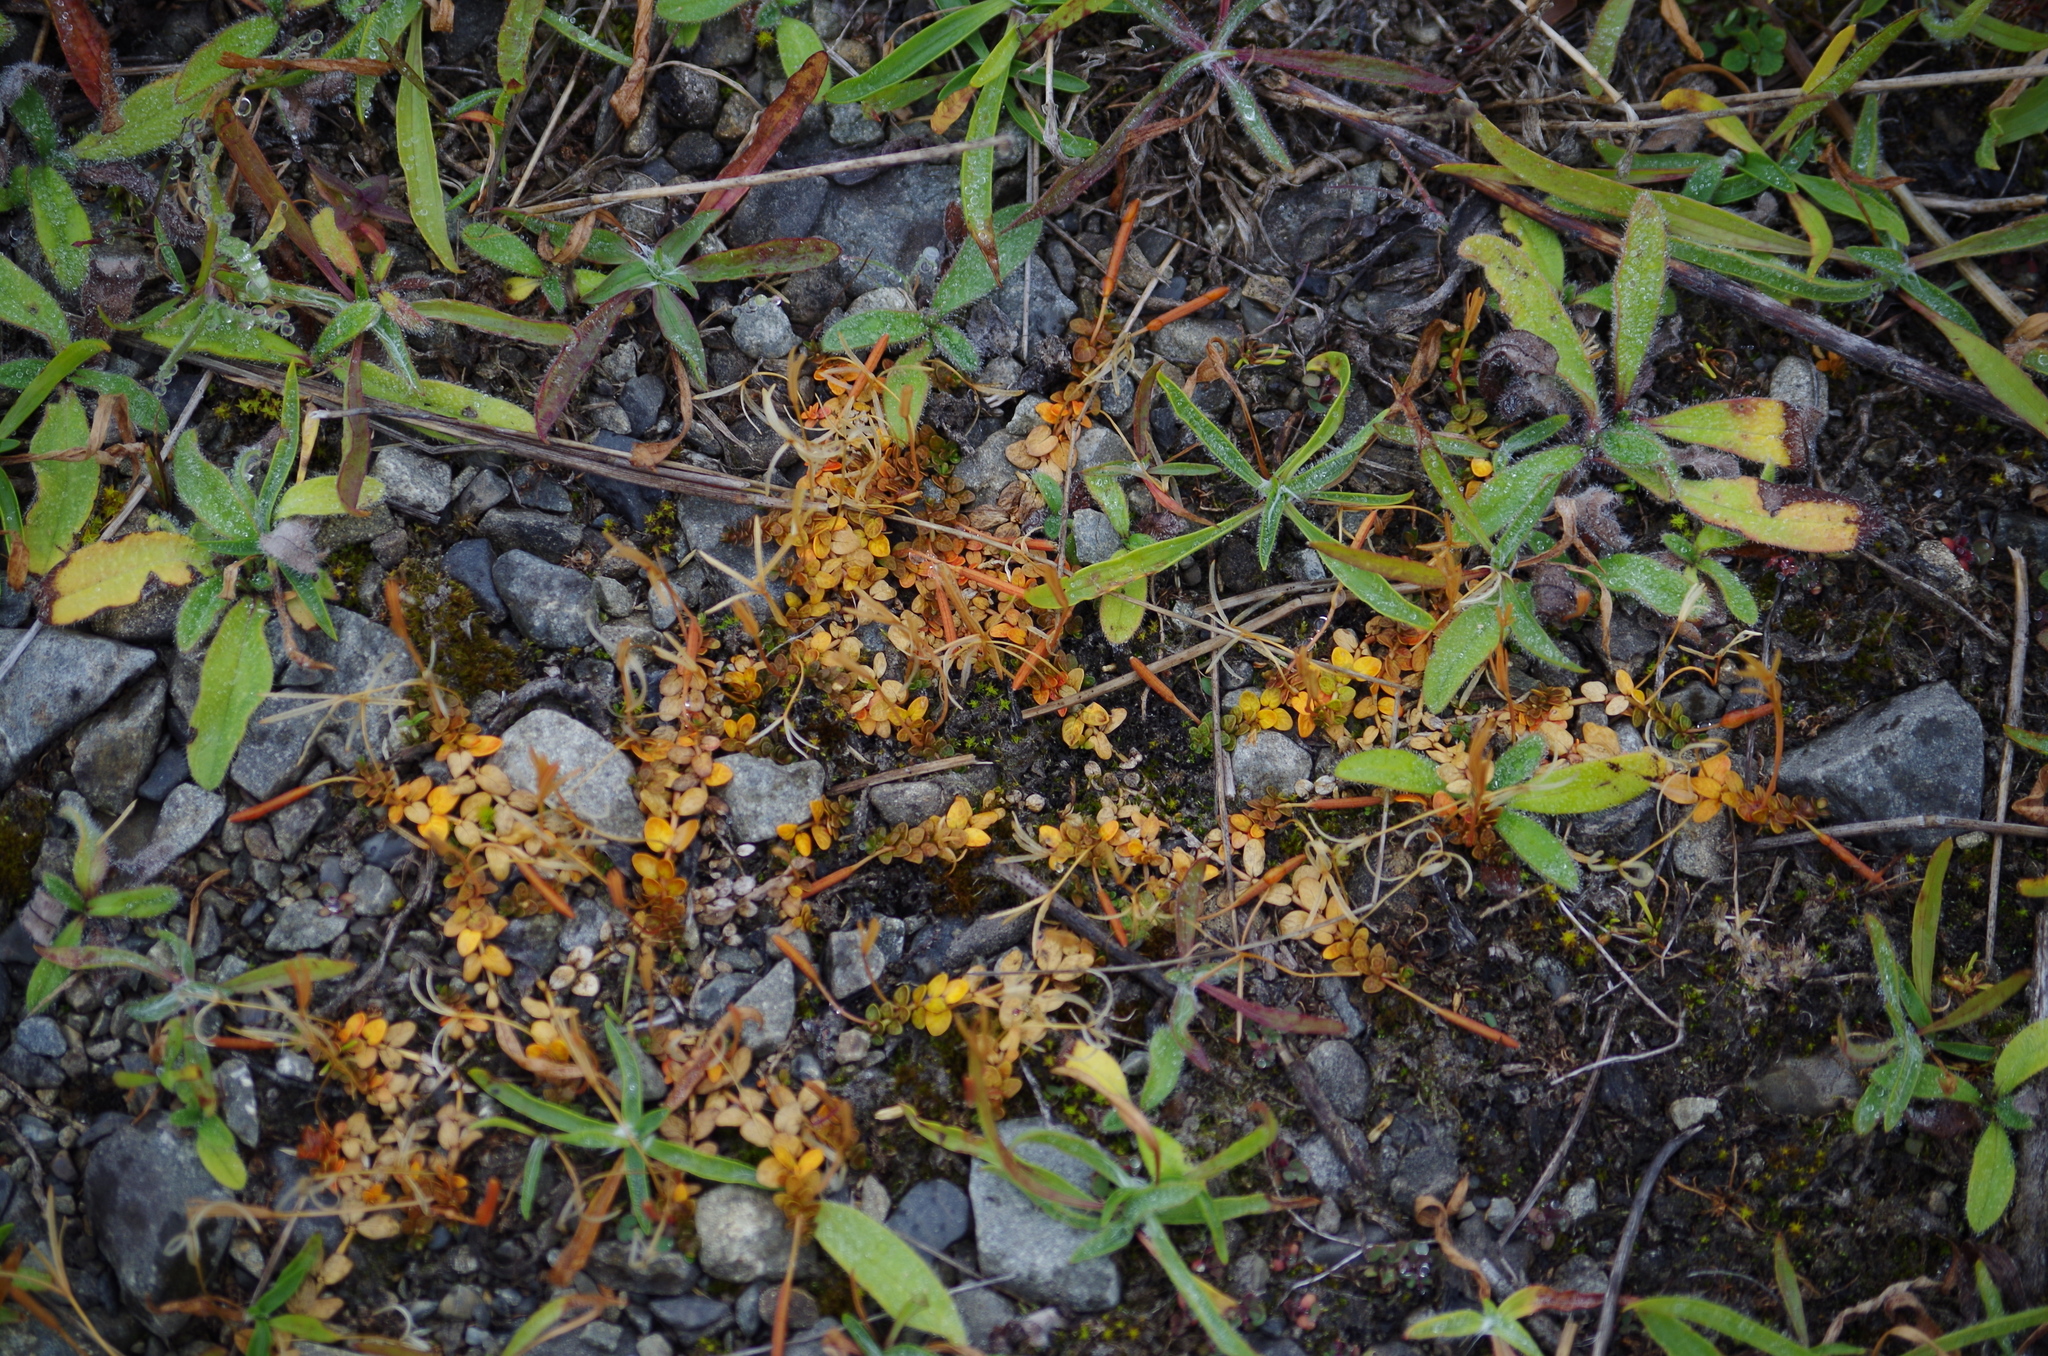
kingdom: Plantae
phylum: Tracheophyta
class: Magnoliopsida
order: Myrtales
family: Onagraceae
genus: Epilobium
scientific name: Epilobium komarovianum
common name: Bronzy willowherb
